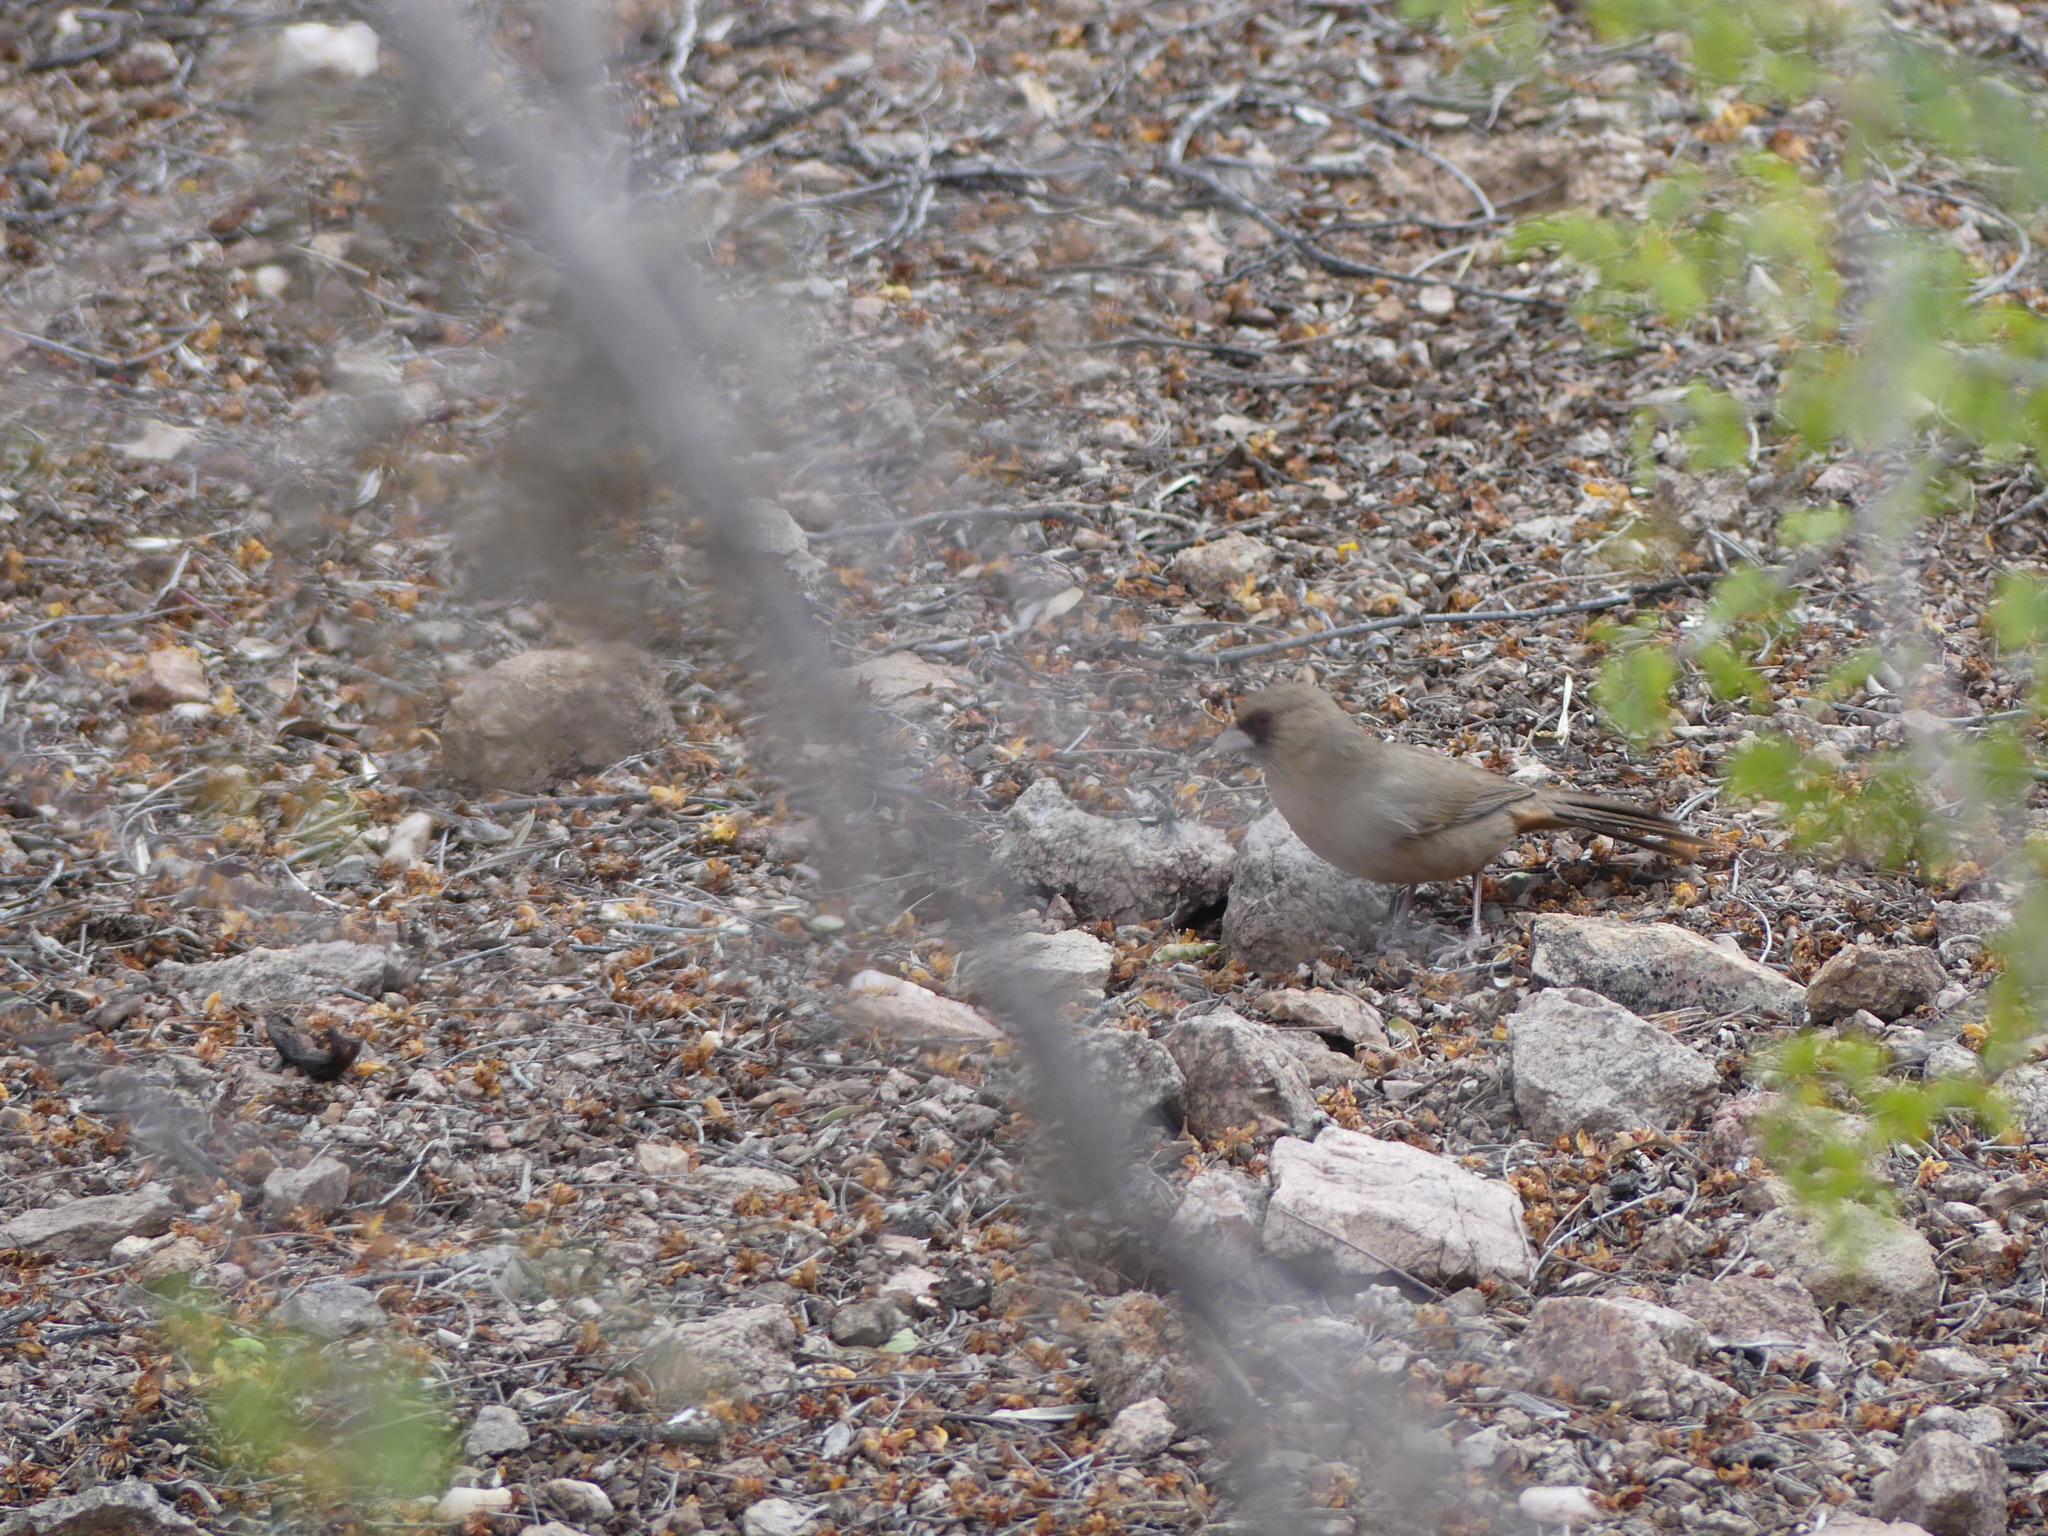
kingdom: Animalia
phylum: Chordata
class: Aves
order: Passeriformes
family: Passerellidae
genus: Melozone
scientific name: Melozone aberti
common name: Abert's towhee
